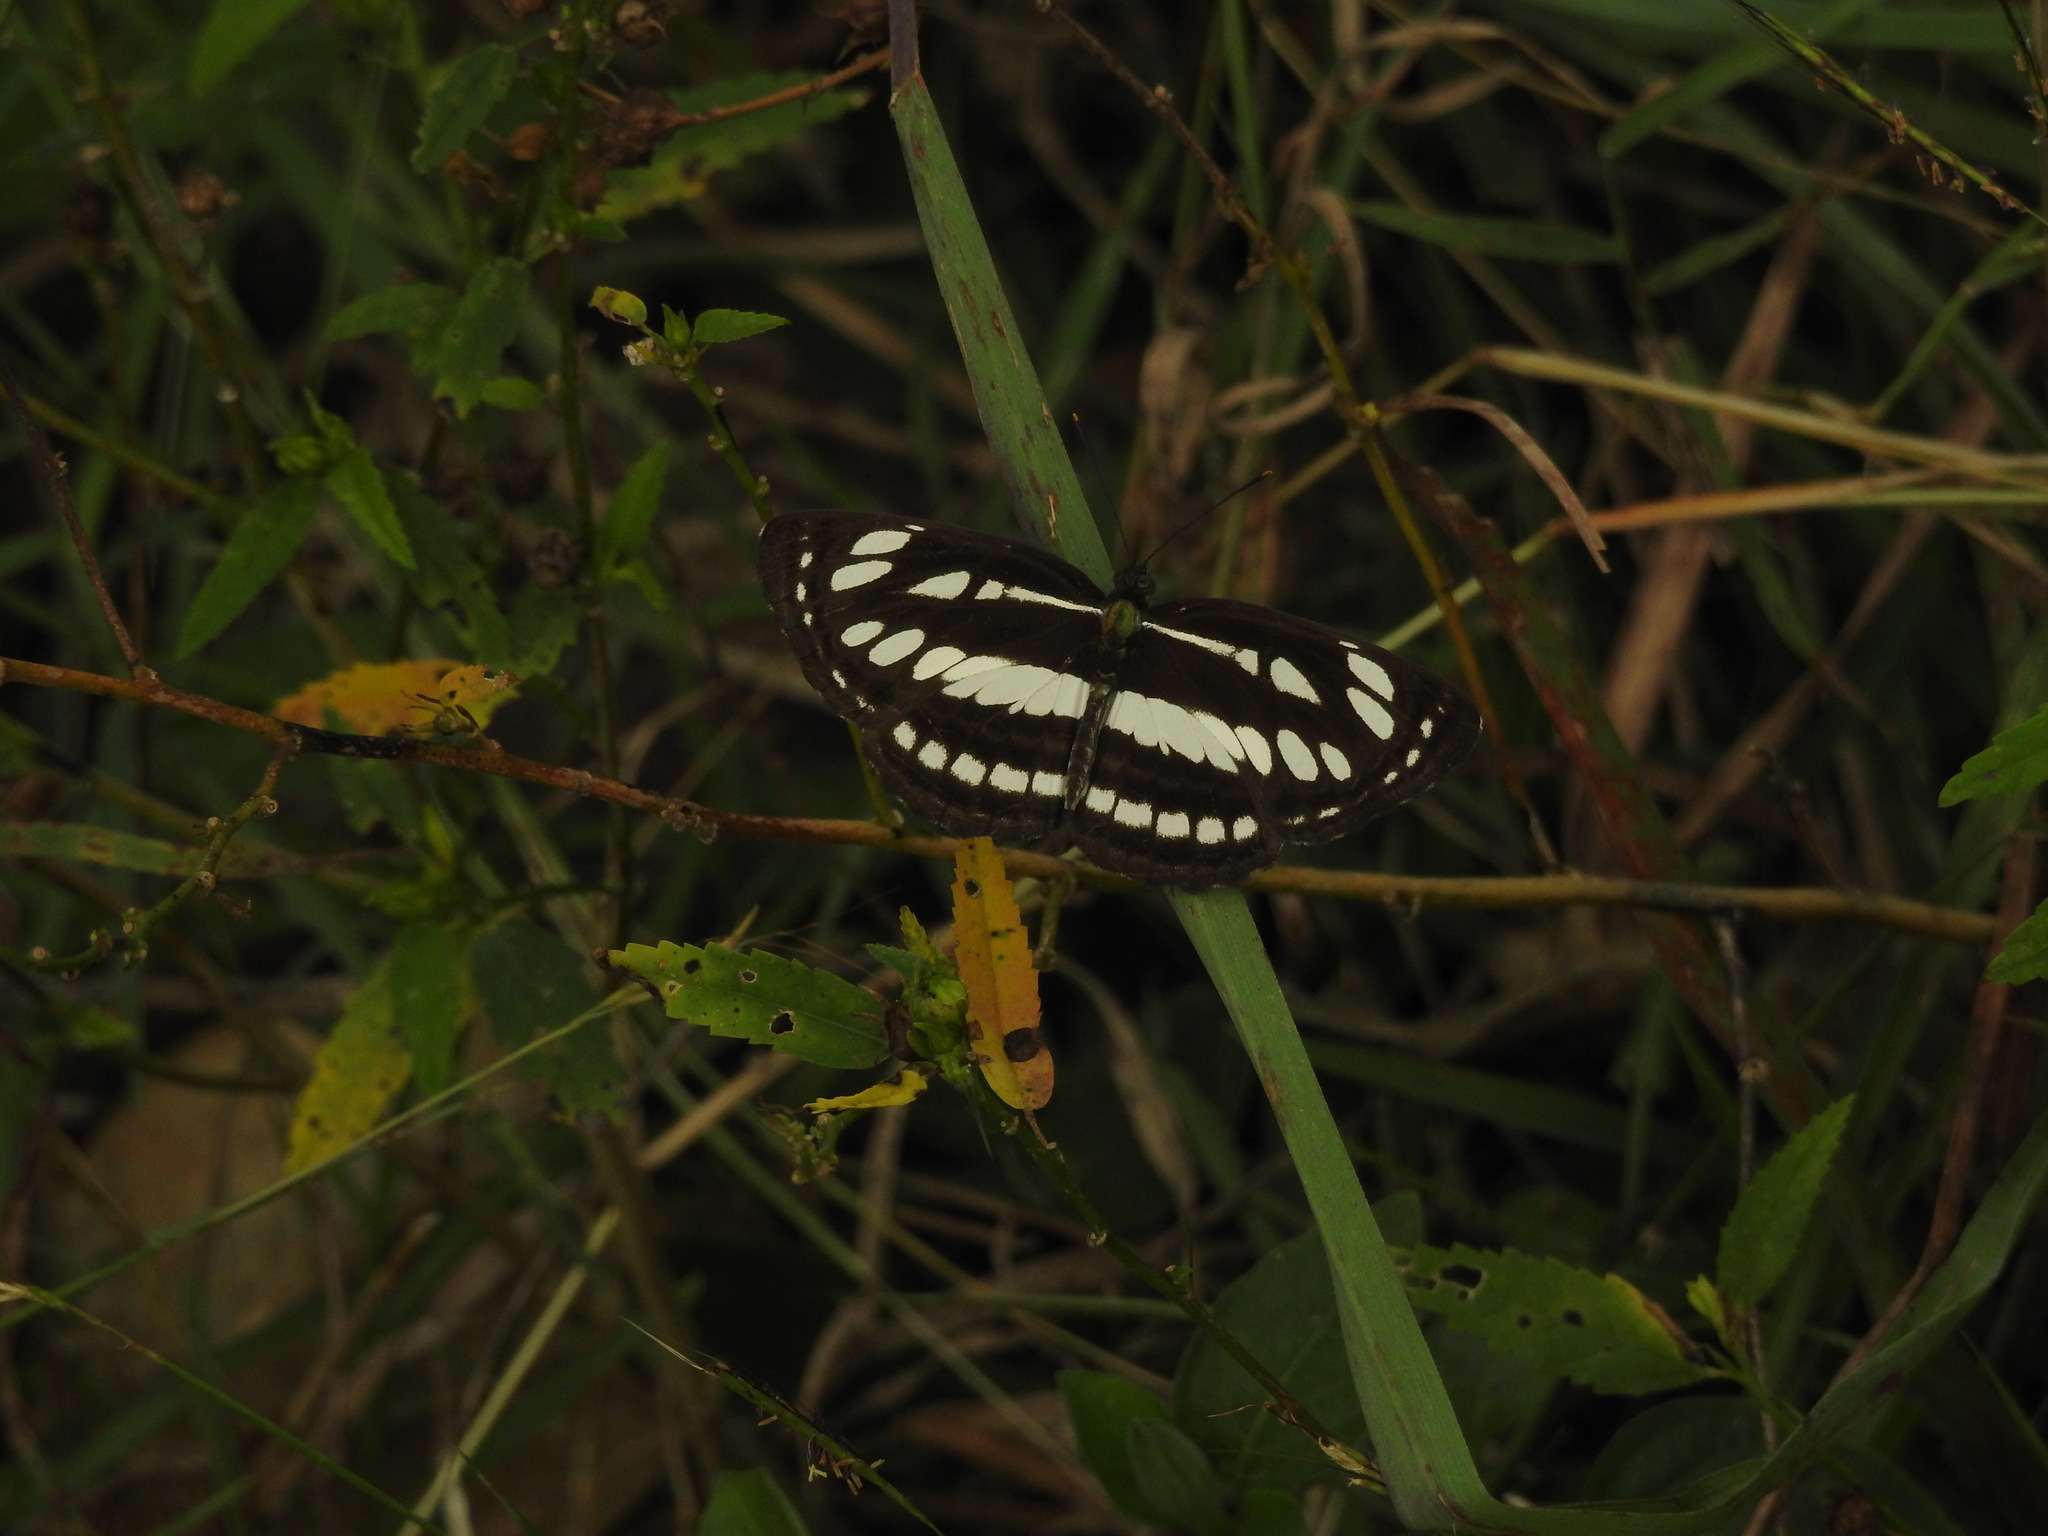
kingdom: Animalia
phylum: Arthropoda
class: Insecta
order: Lepidoptera
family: Nymphalidae
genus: Neptis
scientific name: Neptis hylas
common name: Common sailer
